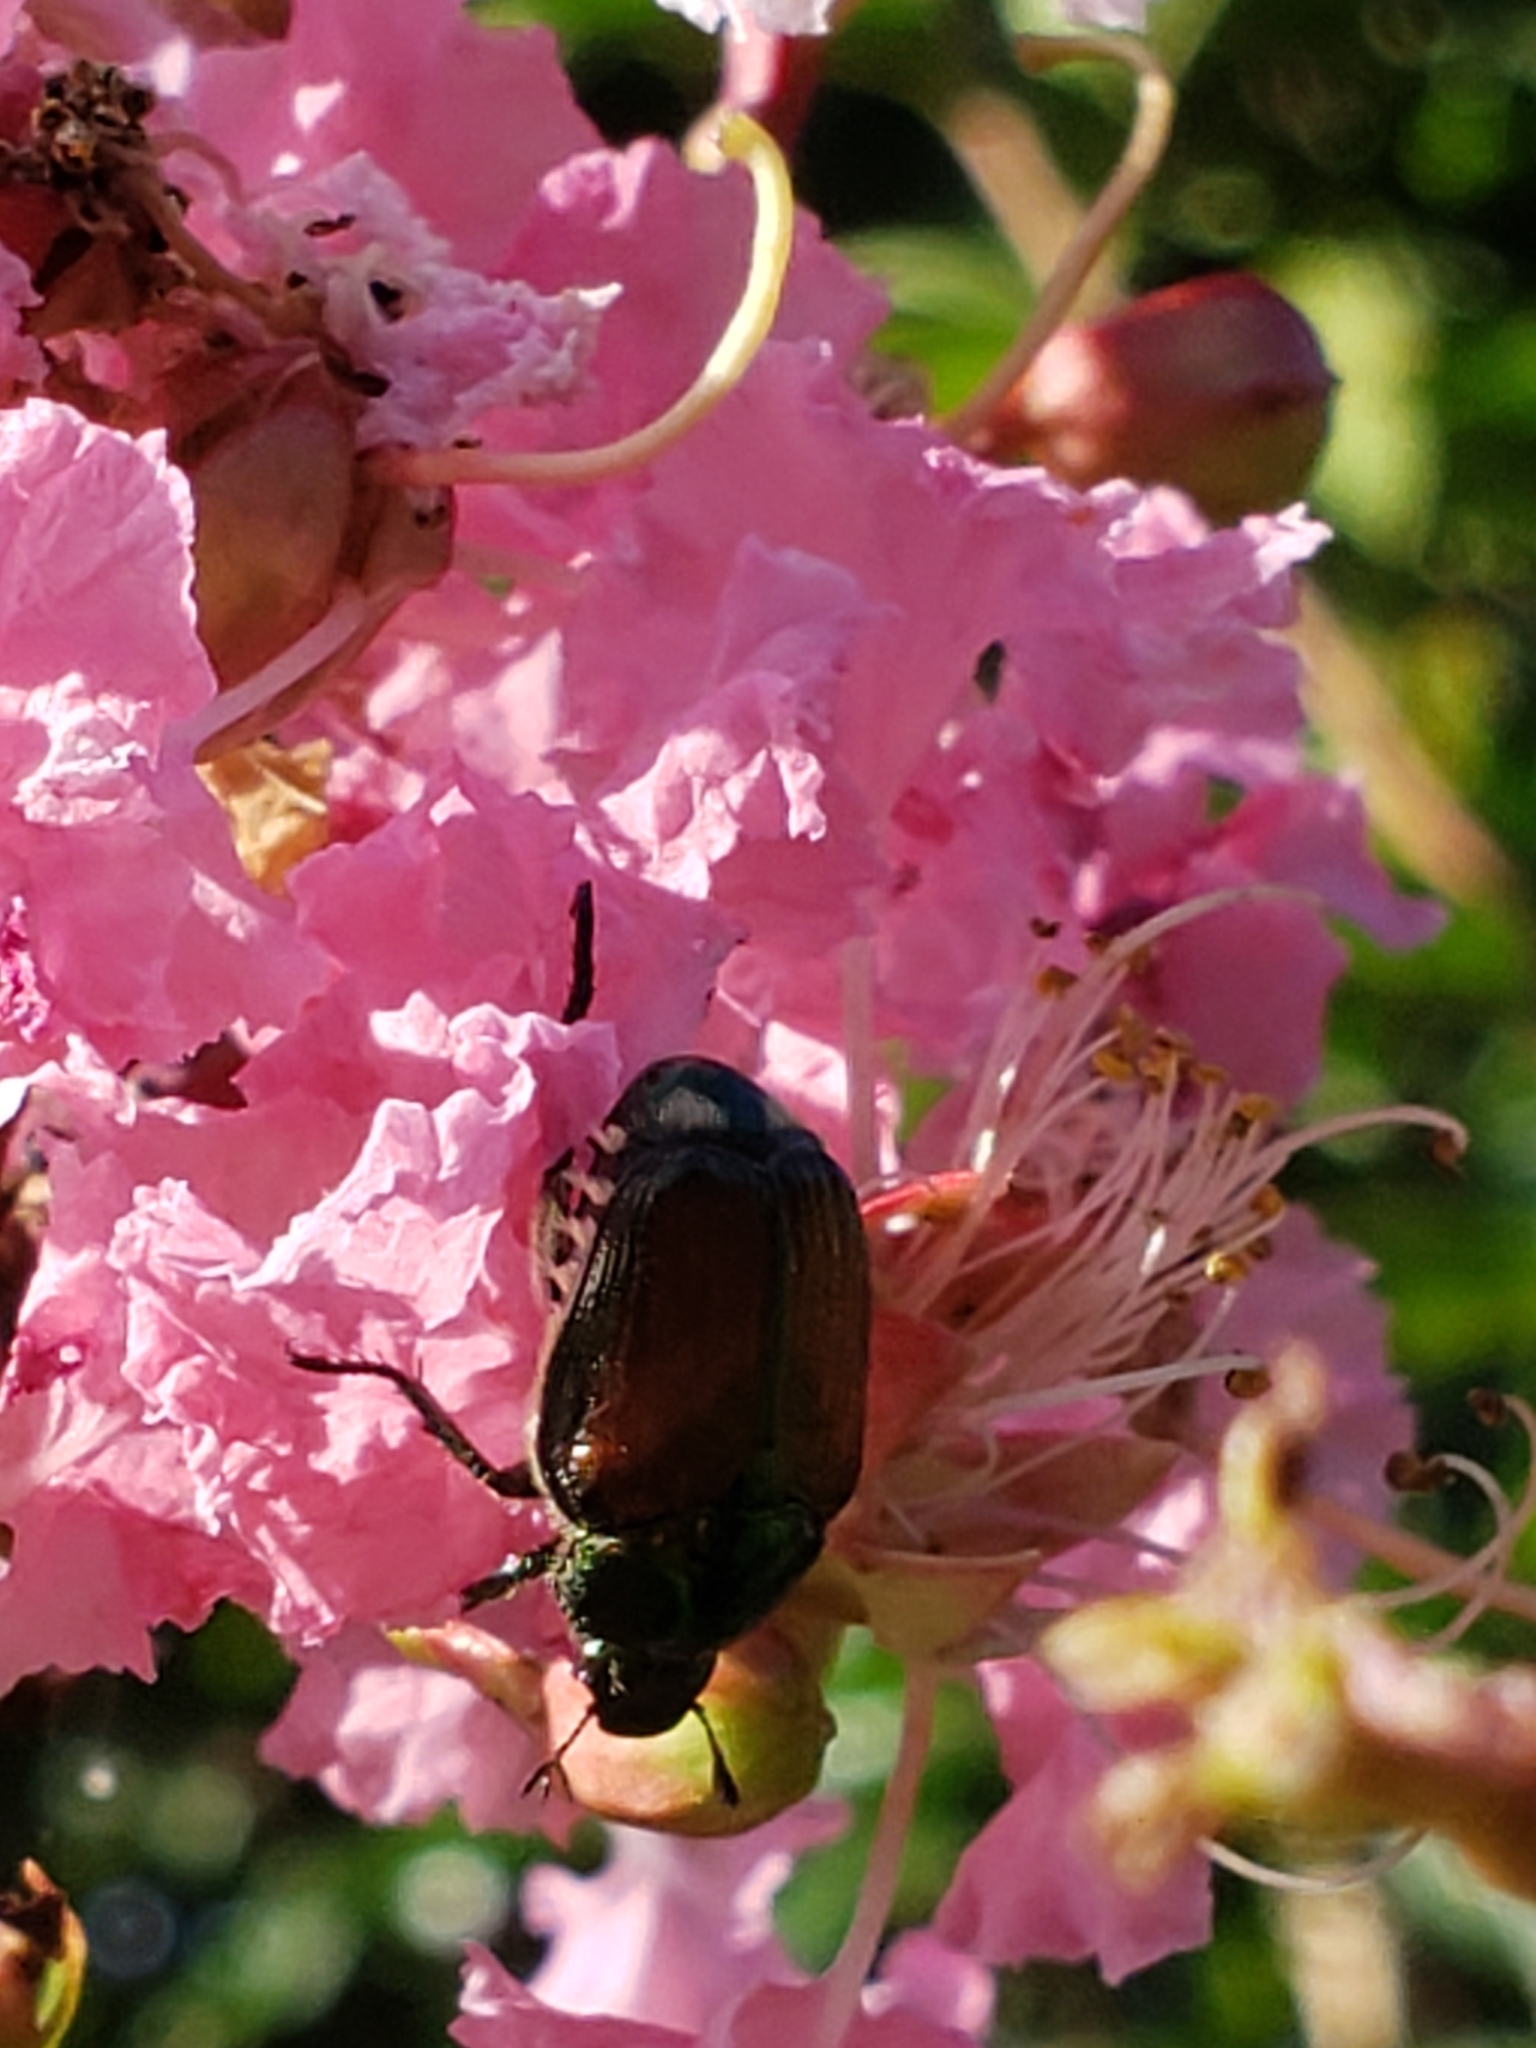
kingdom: Animalia
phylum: Arthropoda
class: Insecta
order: Coleoptera
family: Scarabaeidae
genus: Popillia
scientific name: Popillia japonica
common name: Japanese beetle
